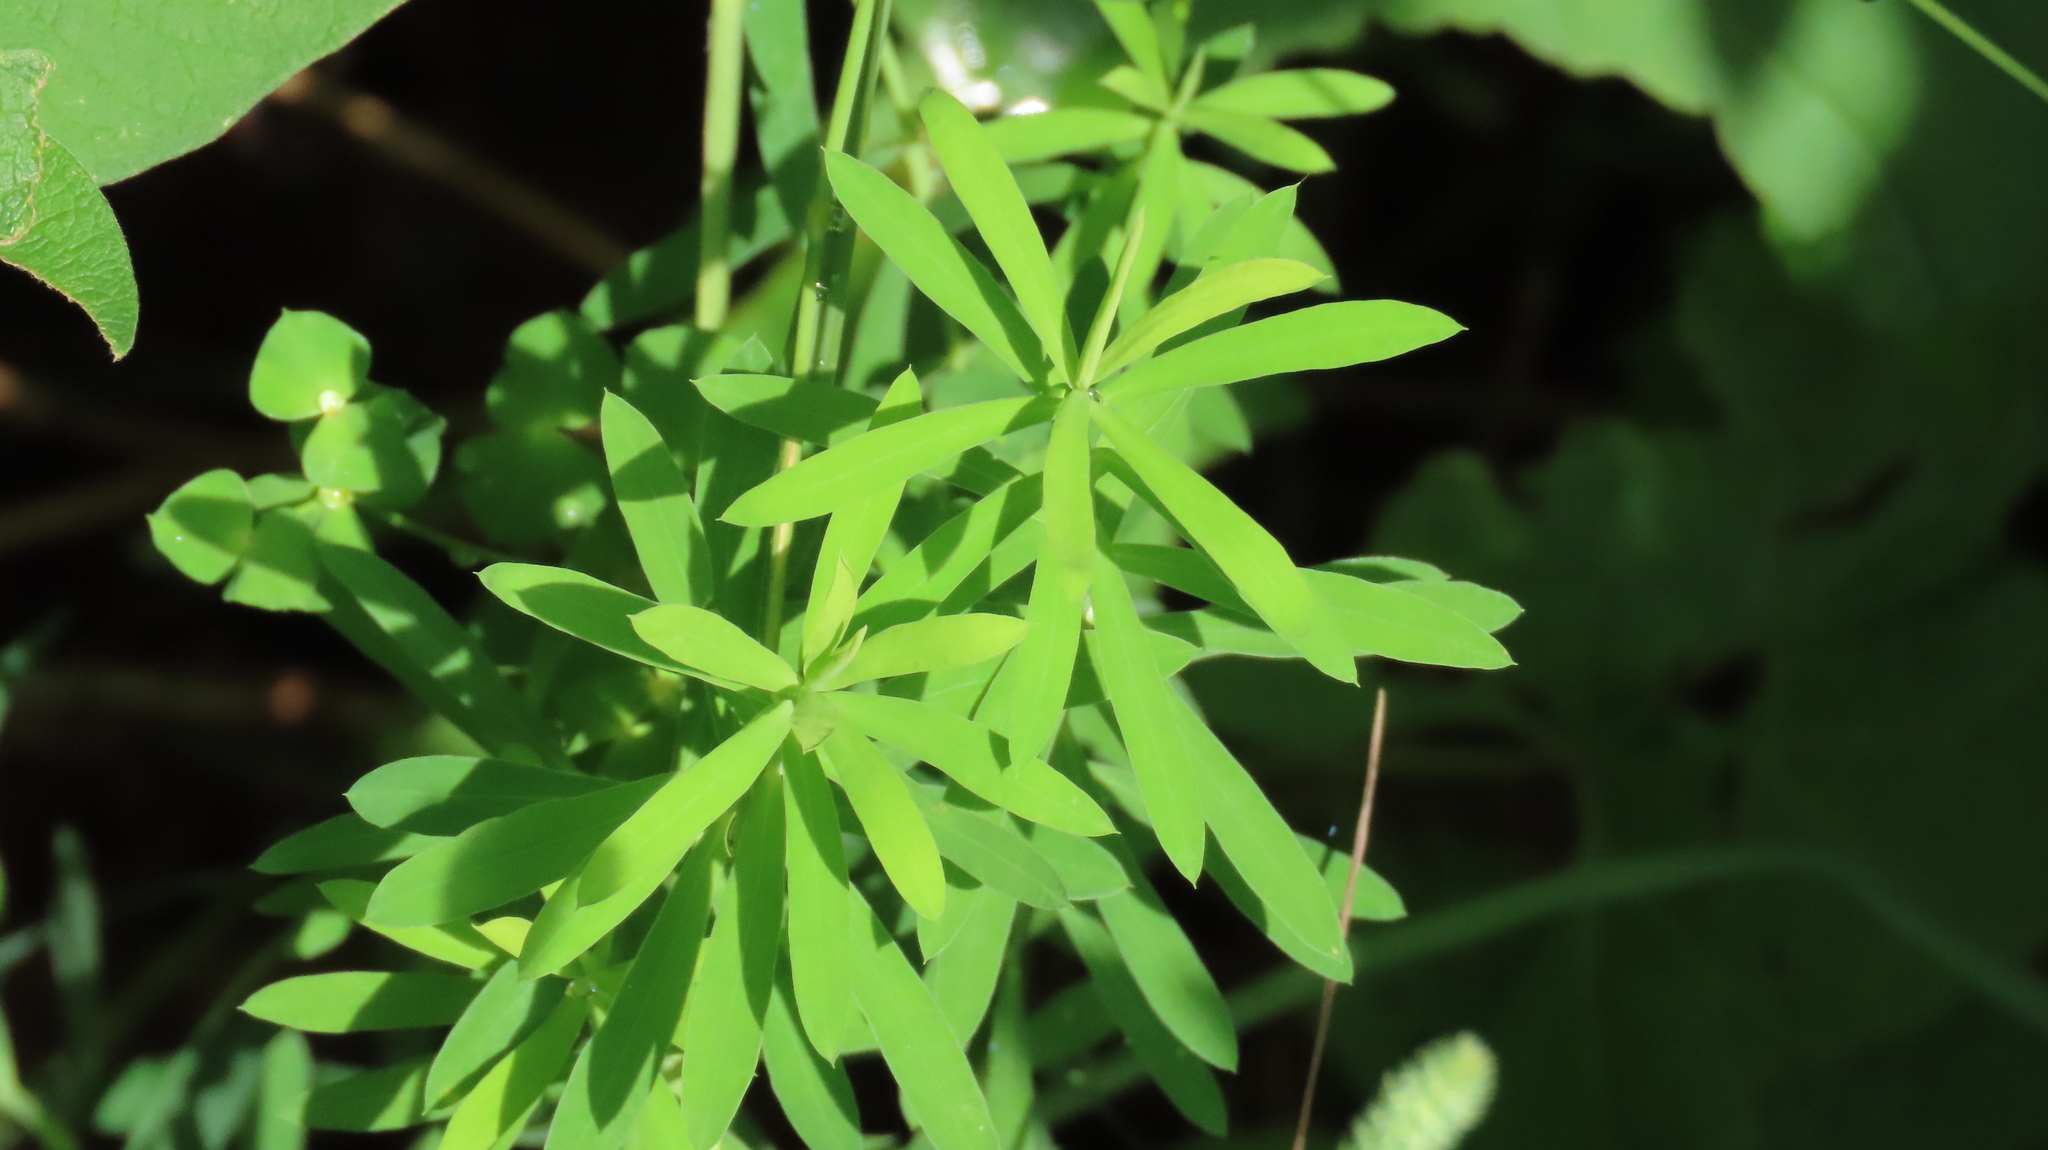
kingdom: Plantae
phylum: Tracheophyta
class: Magnoliopsida
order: Malpighiales
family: Euphorbiaceae
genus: Euphorbia
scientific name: Euphorbia virgata
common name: Leafy spurge
